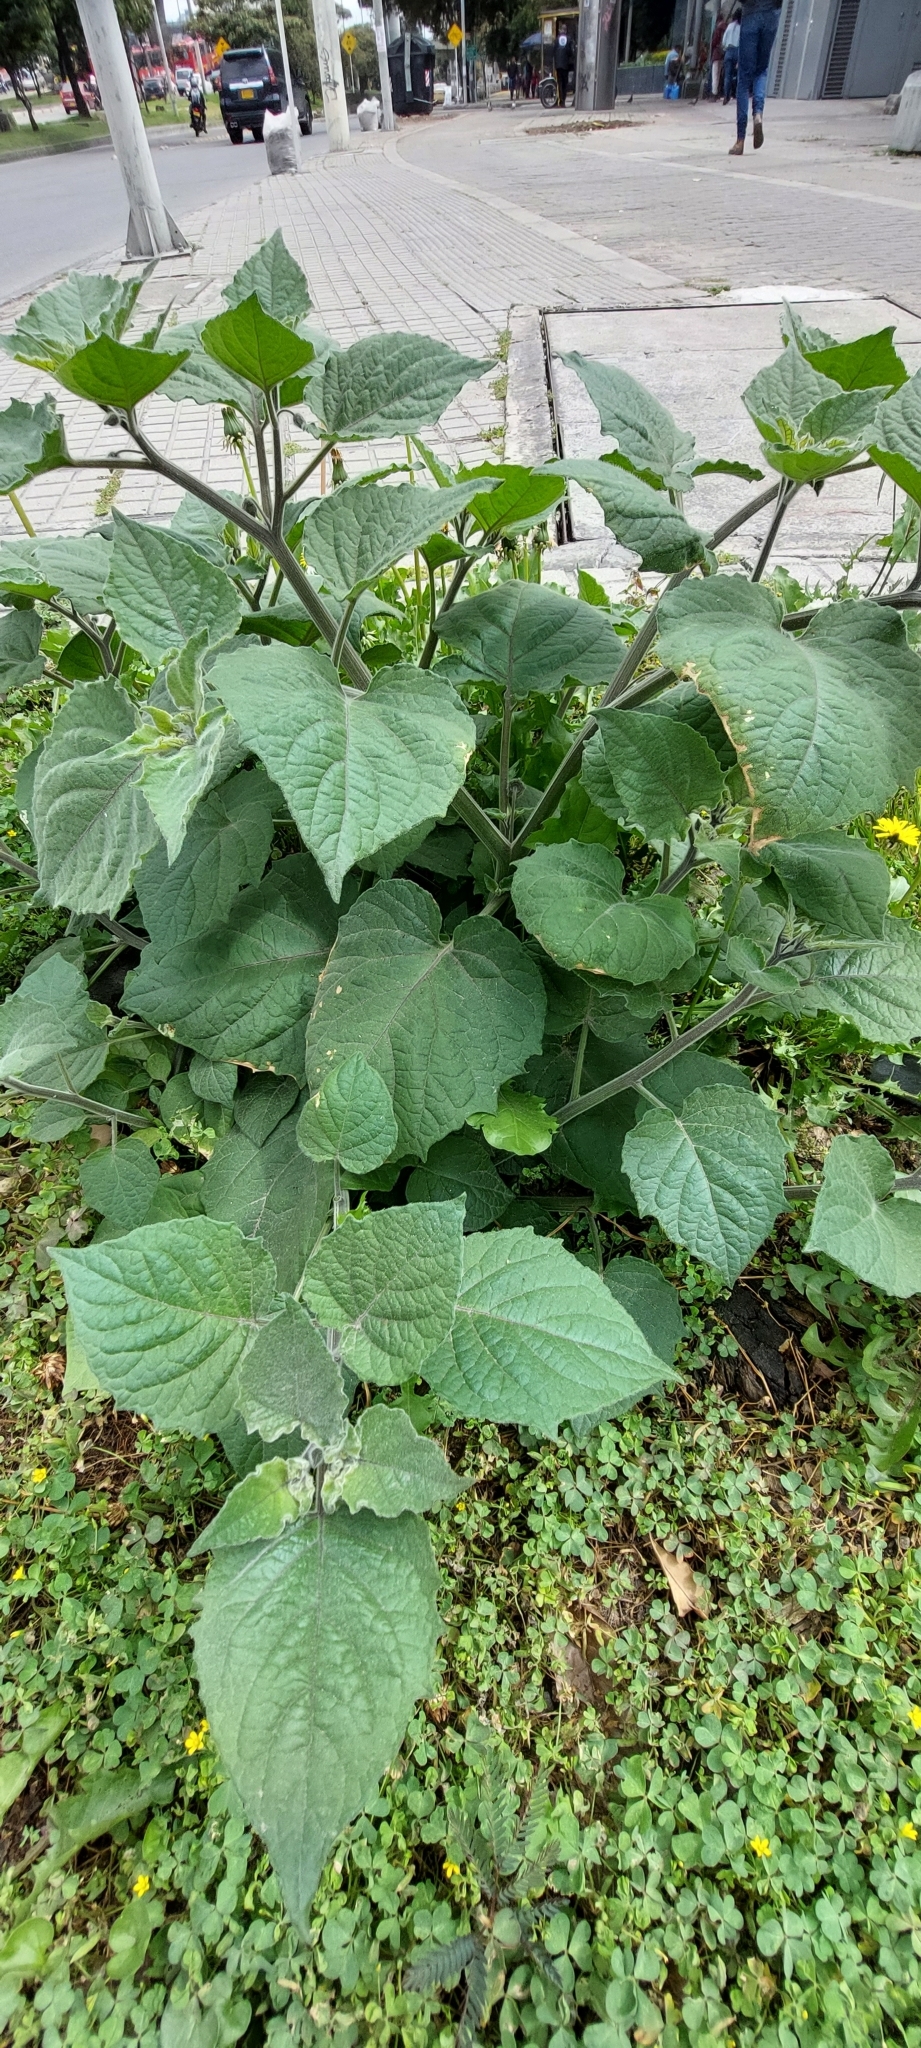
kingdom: Plantae
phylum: Tracheophyta
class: Magnoliopsida
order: Solanales
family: Solanaceae
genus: Physalis
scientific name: Physalis peruviana
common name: Cape-gooseberry
